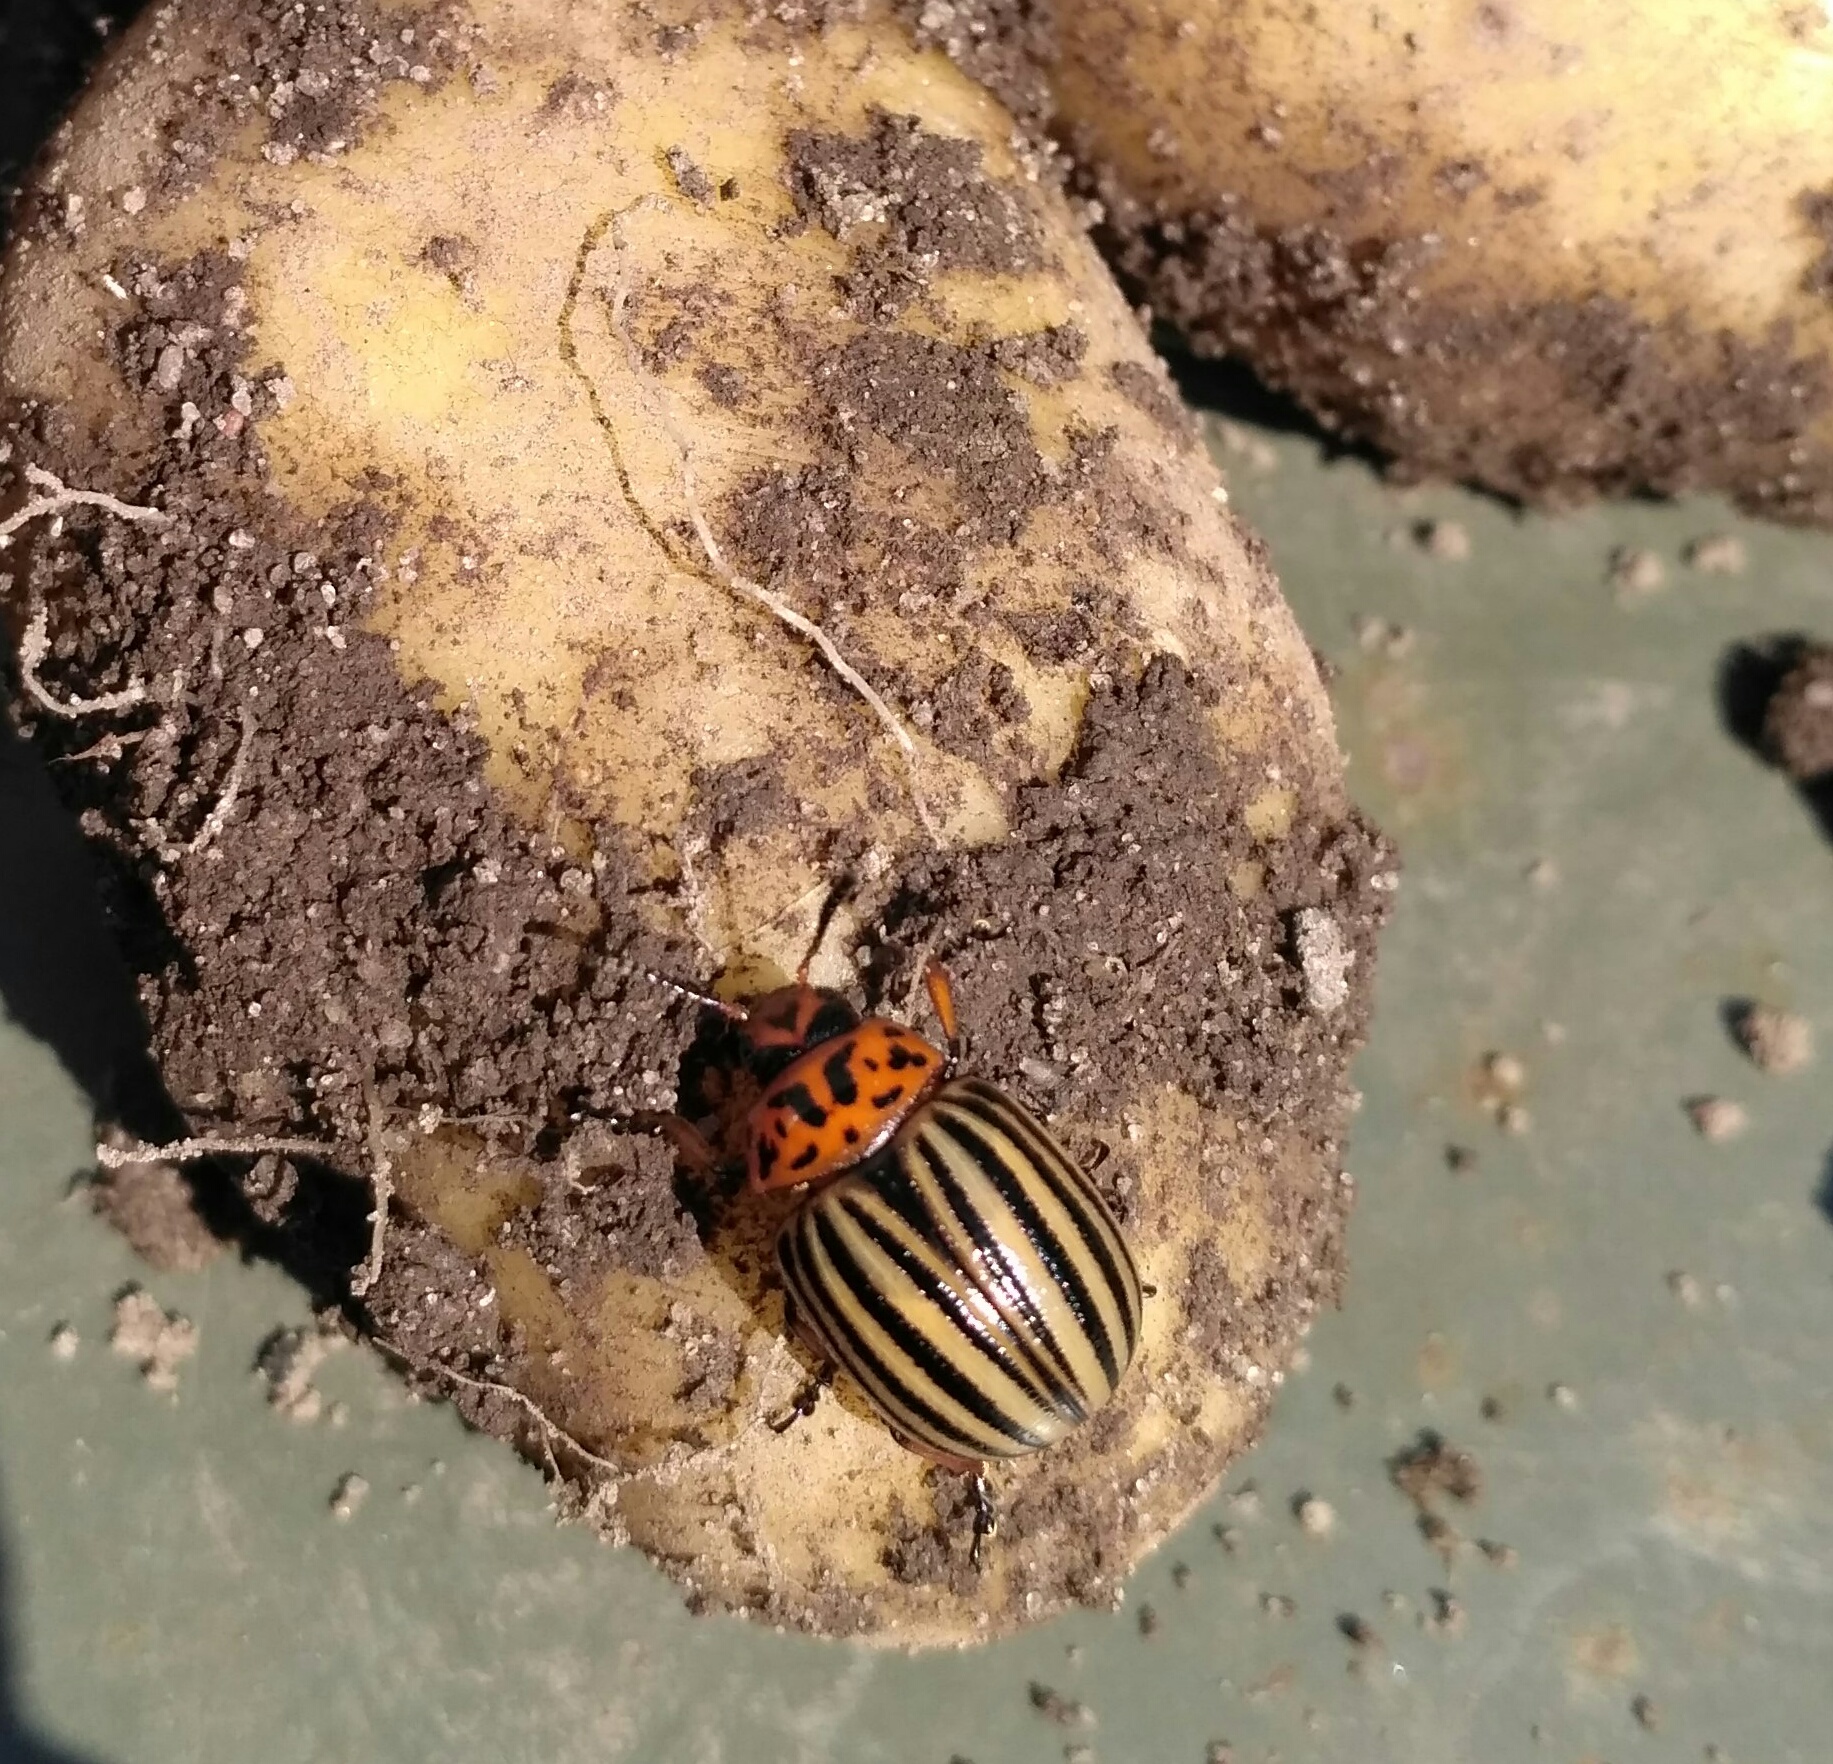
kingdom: Animalia
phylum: Arthropoda
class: Insecta
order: Coleoptera
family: Chrysomelidae
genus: Leptinotarsa
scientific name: Leptinotarsa decemlineata
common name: Colorado potato beetle
